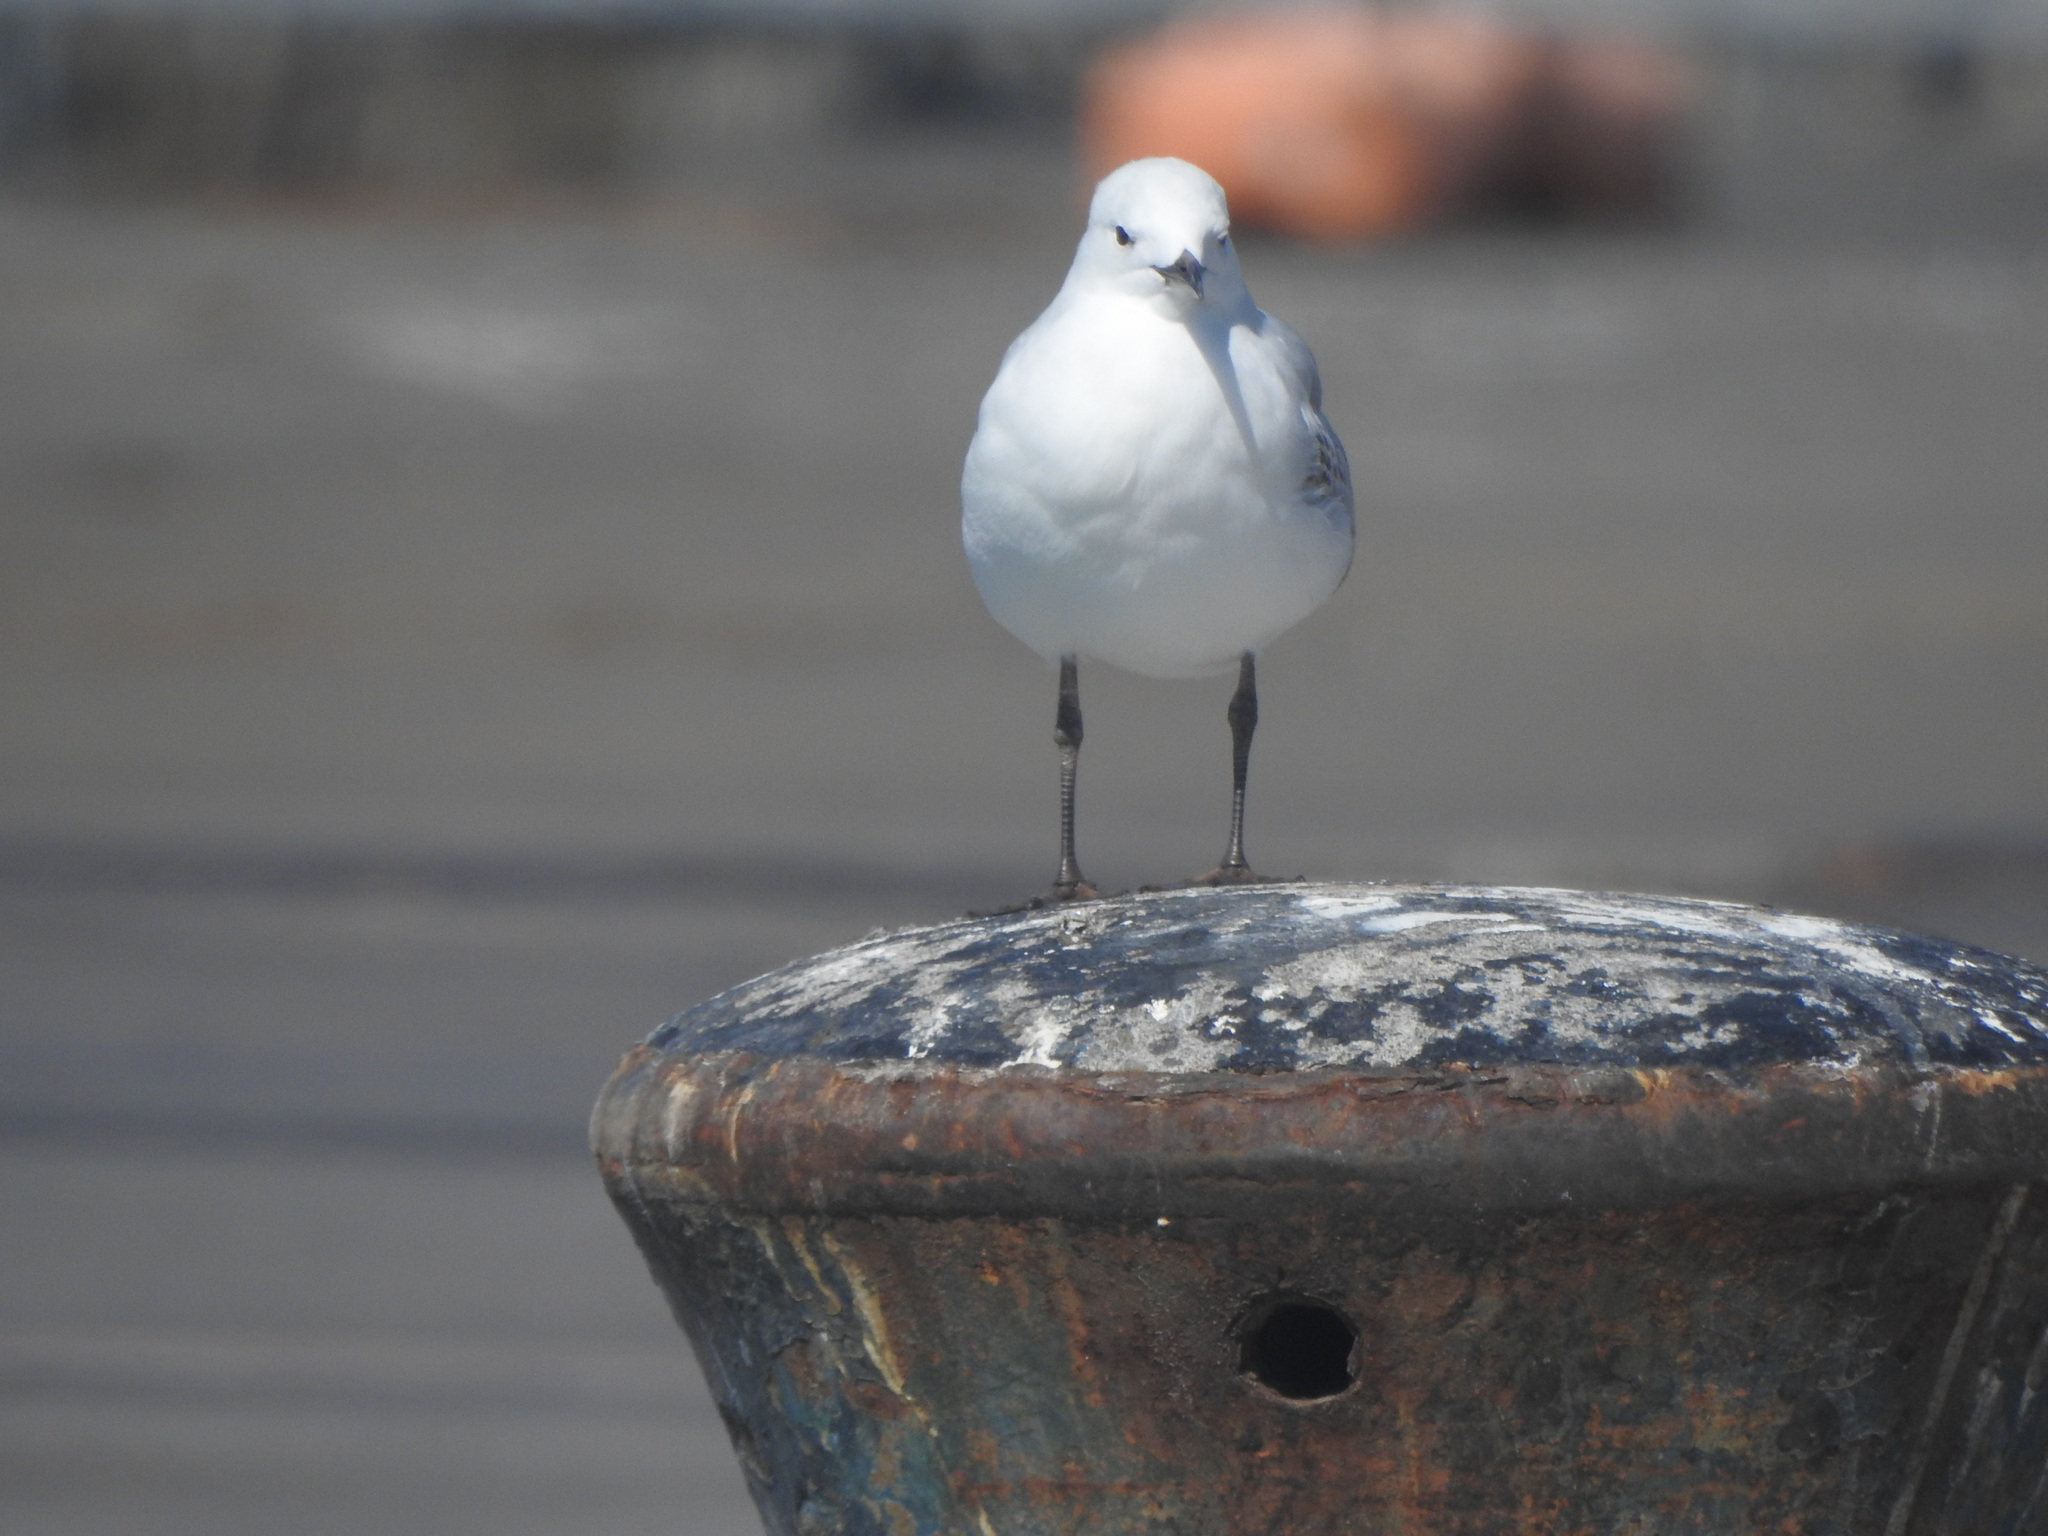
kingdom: Animalia
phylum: Chordata
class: Aves
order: Charadriiformes
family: Laridae
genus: Chroicocephalus
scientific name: Chroicocephalus novaehollandiae
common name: Silver gull
